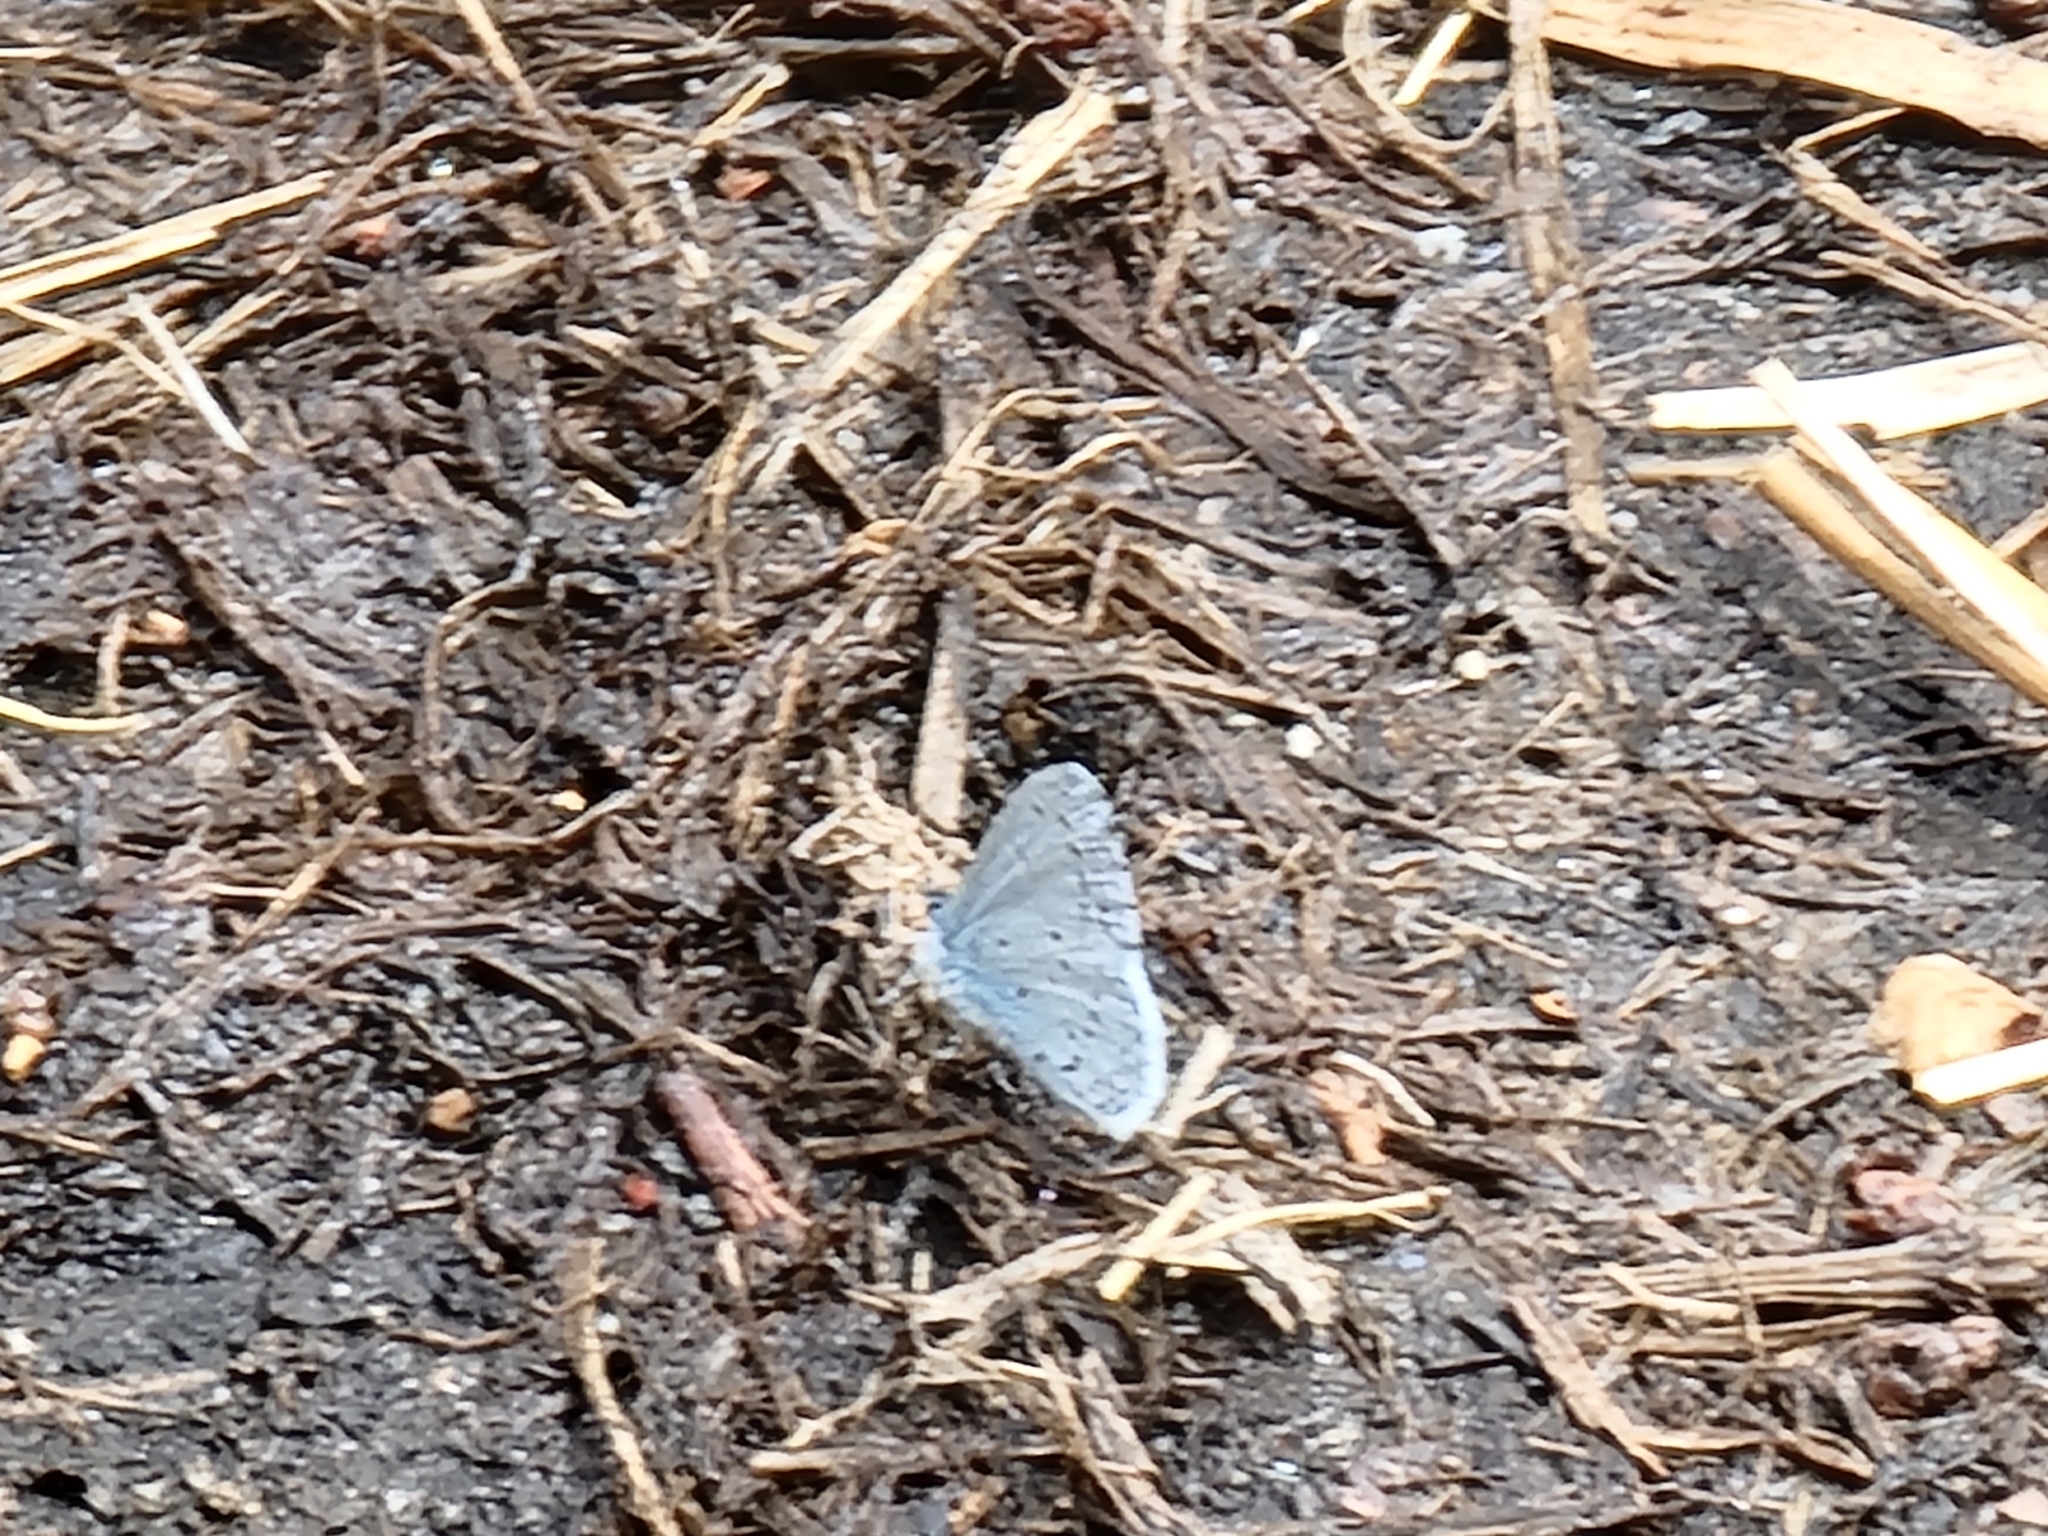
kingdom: Animalia
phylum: Arthropoda
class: Insecta
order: Lepidoptera
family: Lycaenidae
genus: Celastrina
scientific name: Celastrina ladon
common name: Spring azure
